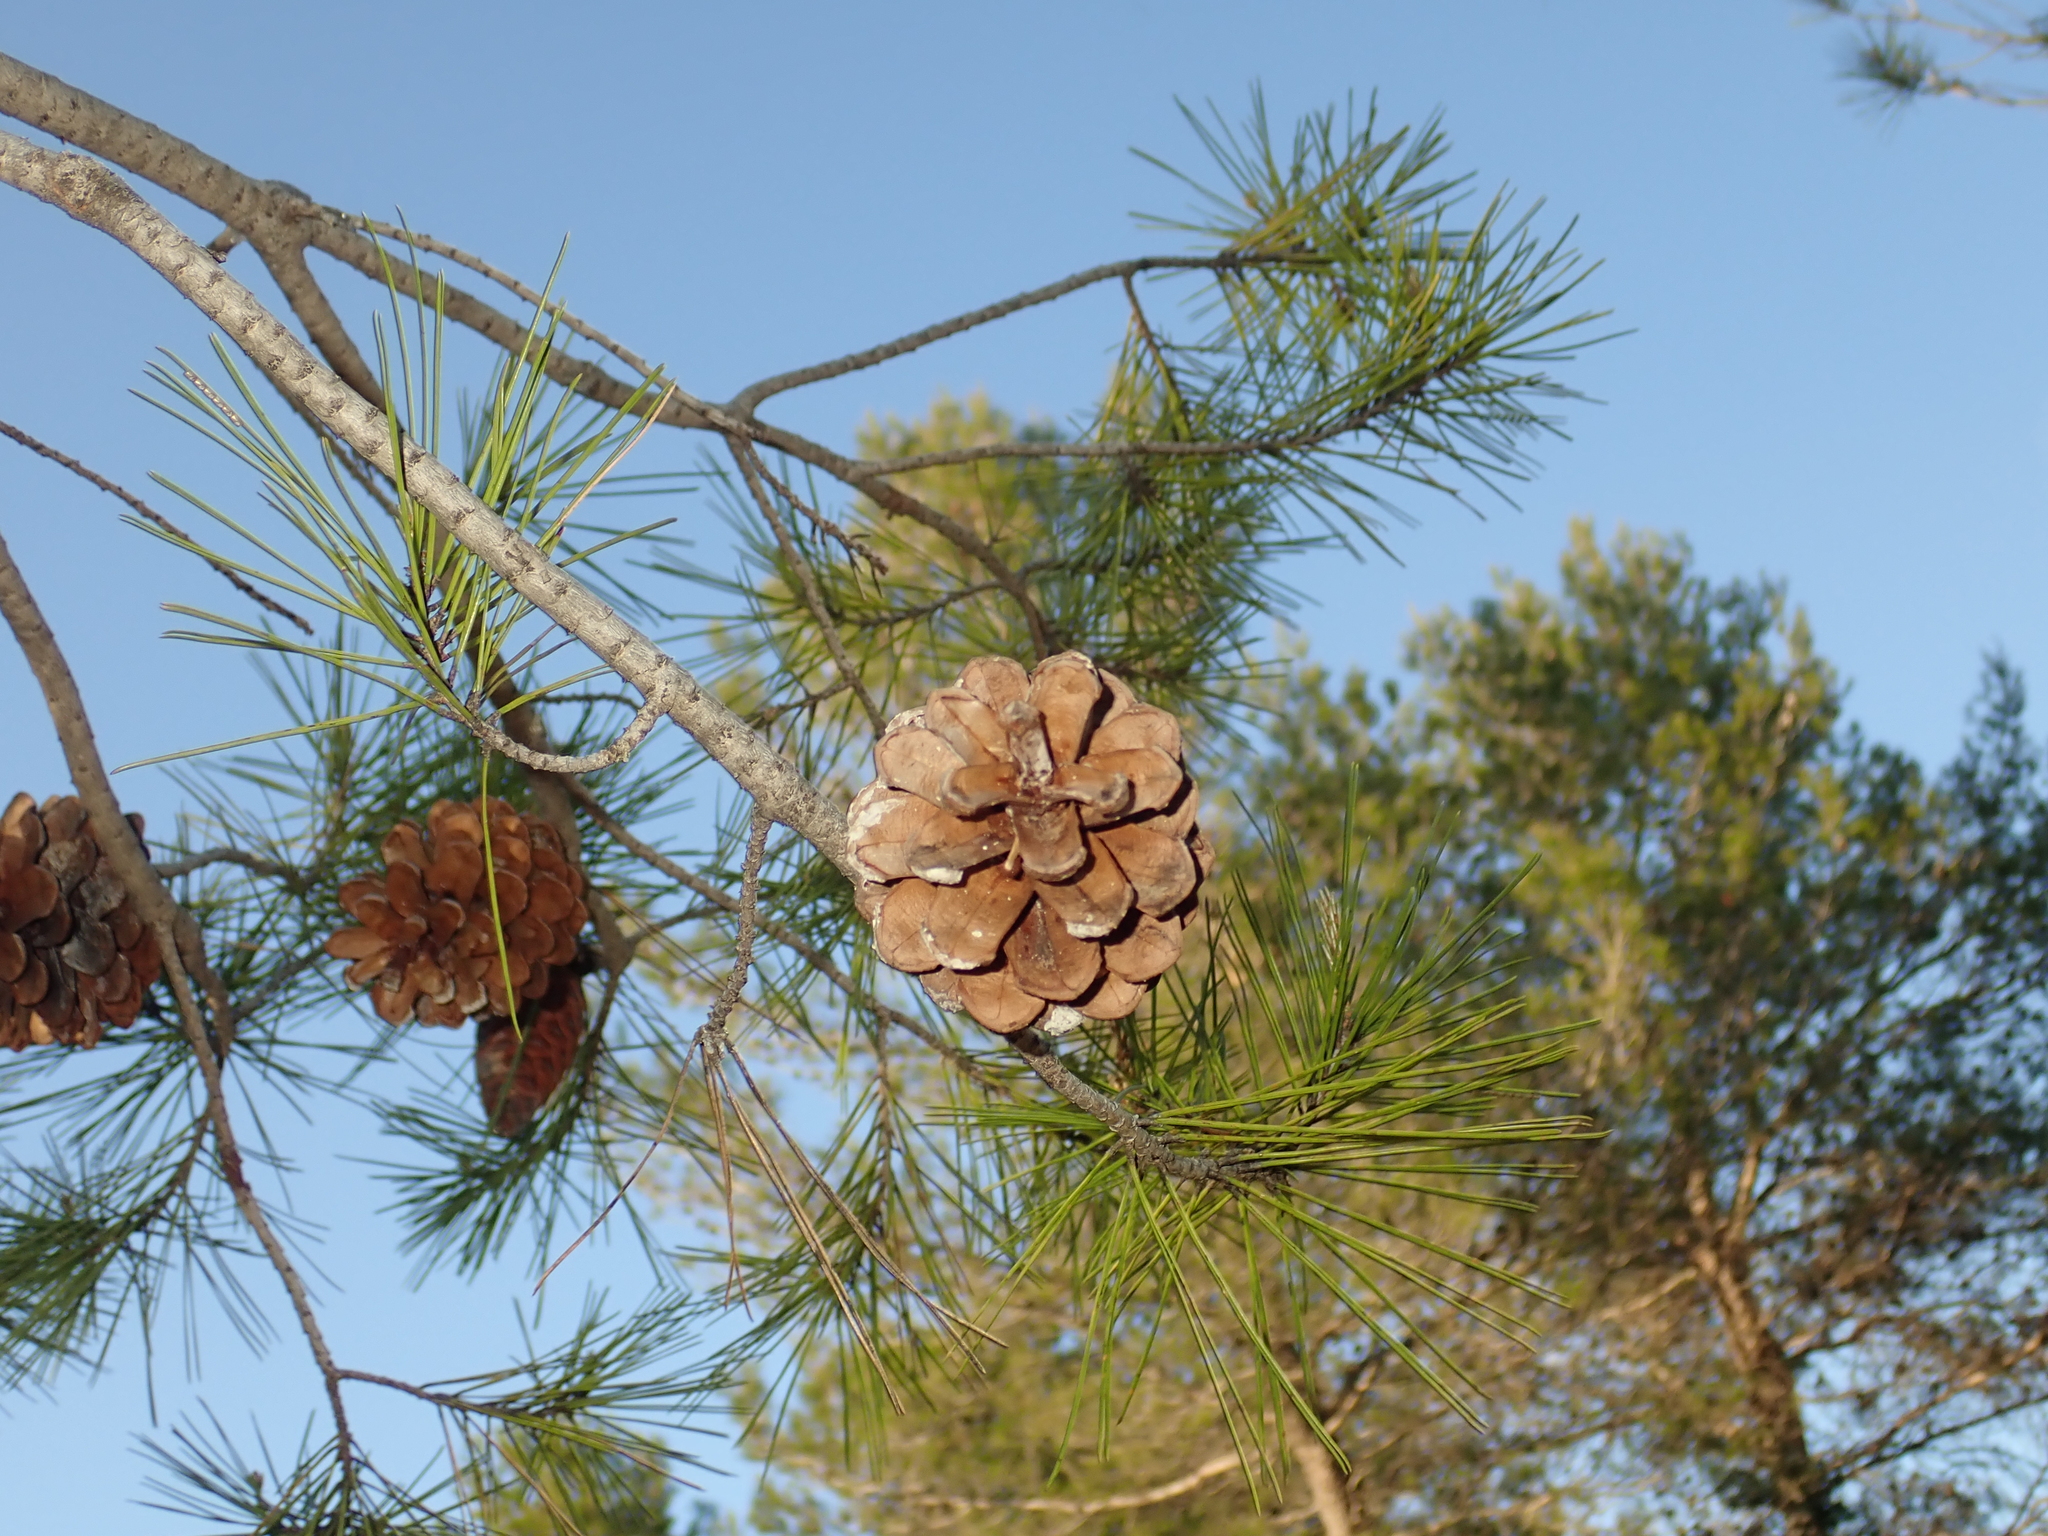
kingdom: Plantae
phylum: Tracheophyta
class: Pinopsida
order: Pinales
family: Pinaceae
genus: Pinus
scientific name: Pinus halepensis
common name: Aleppo pine
